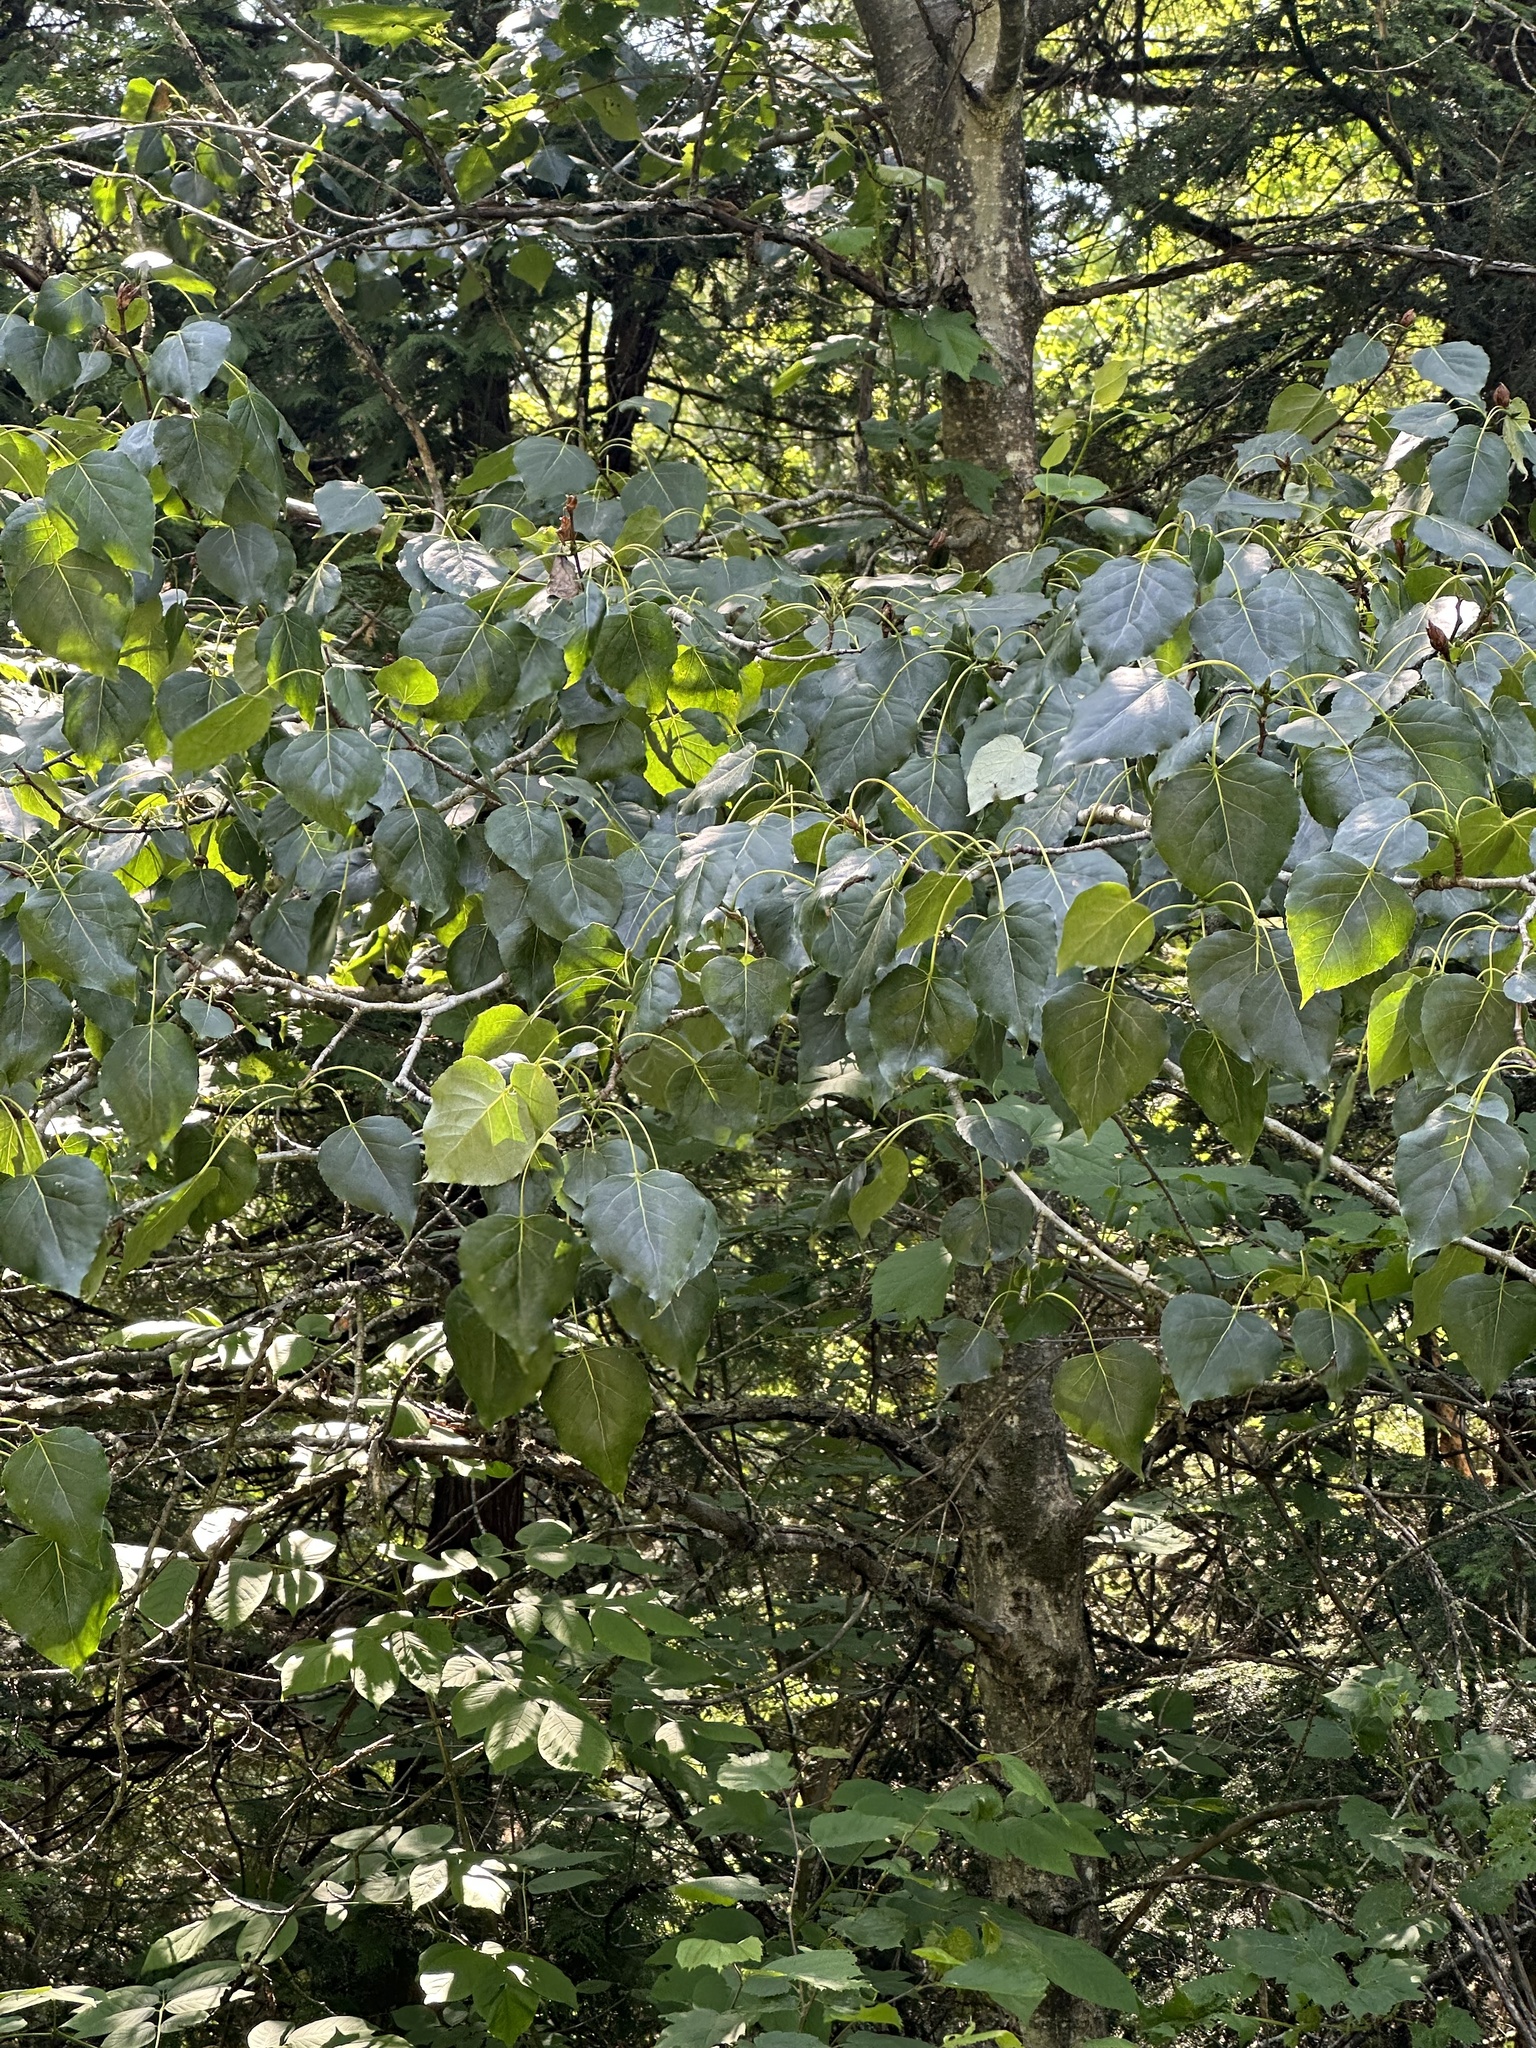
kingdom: Plantae
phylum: Tracheophyta
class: Magnoliopsida
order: Malpighiales
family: Salicaceae
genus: Populus
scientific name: Populus balsamifera
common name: Balsam poplar
